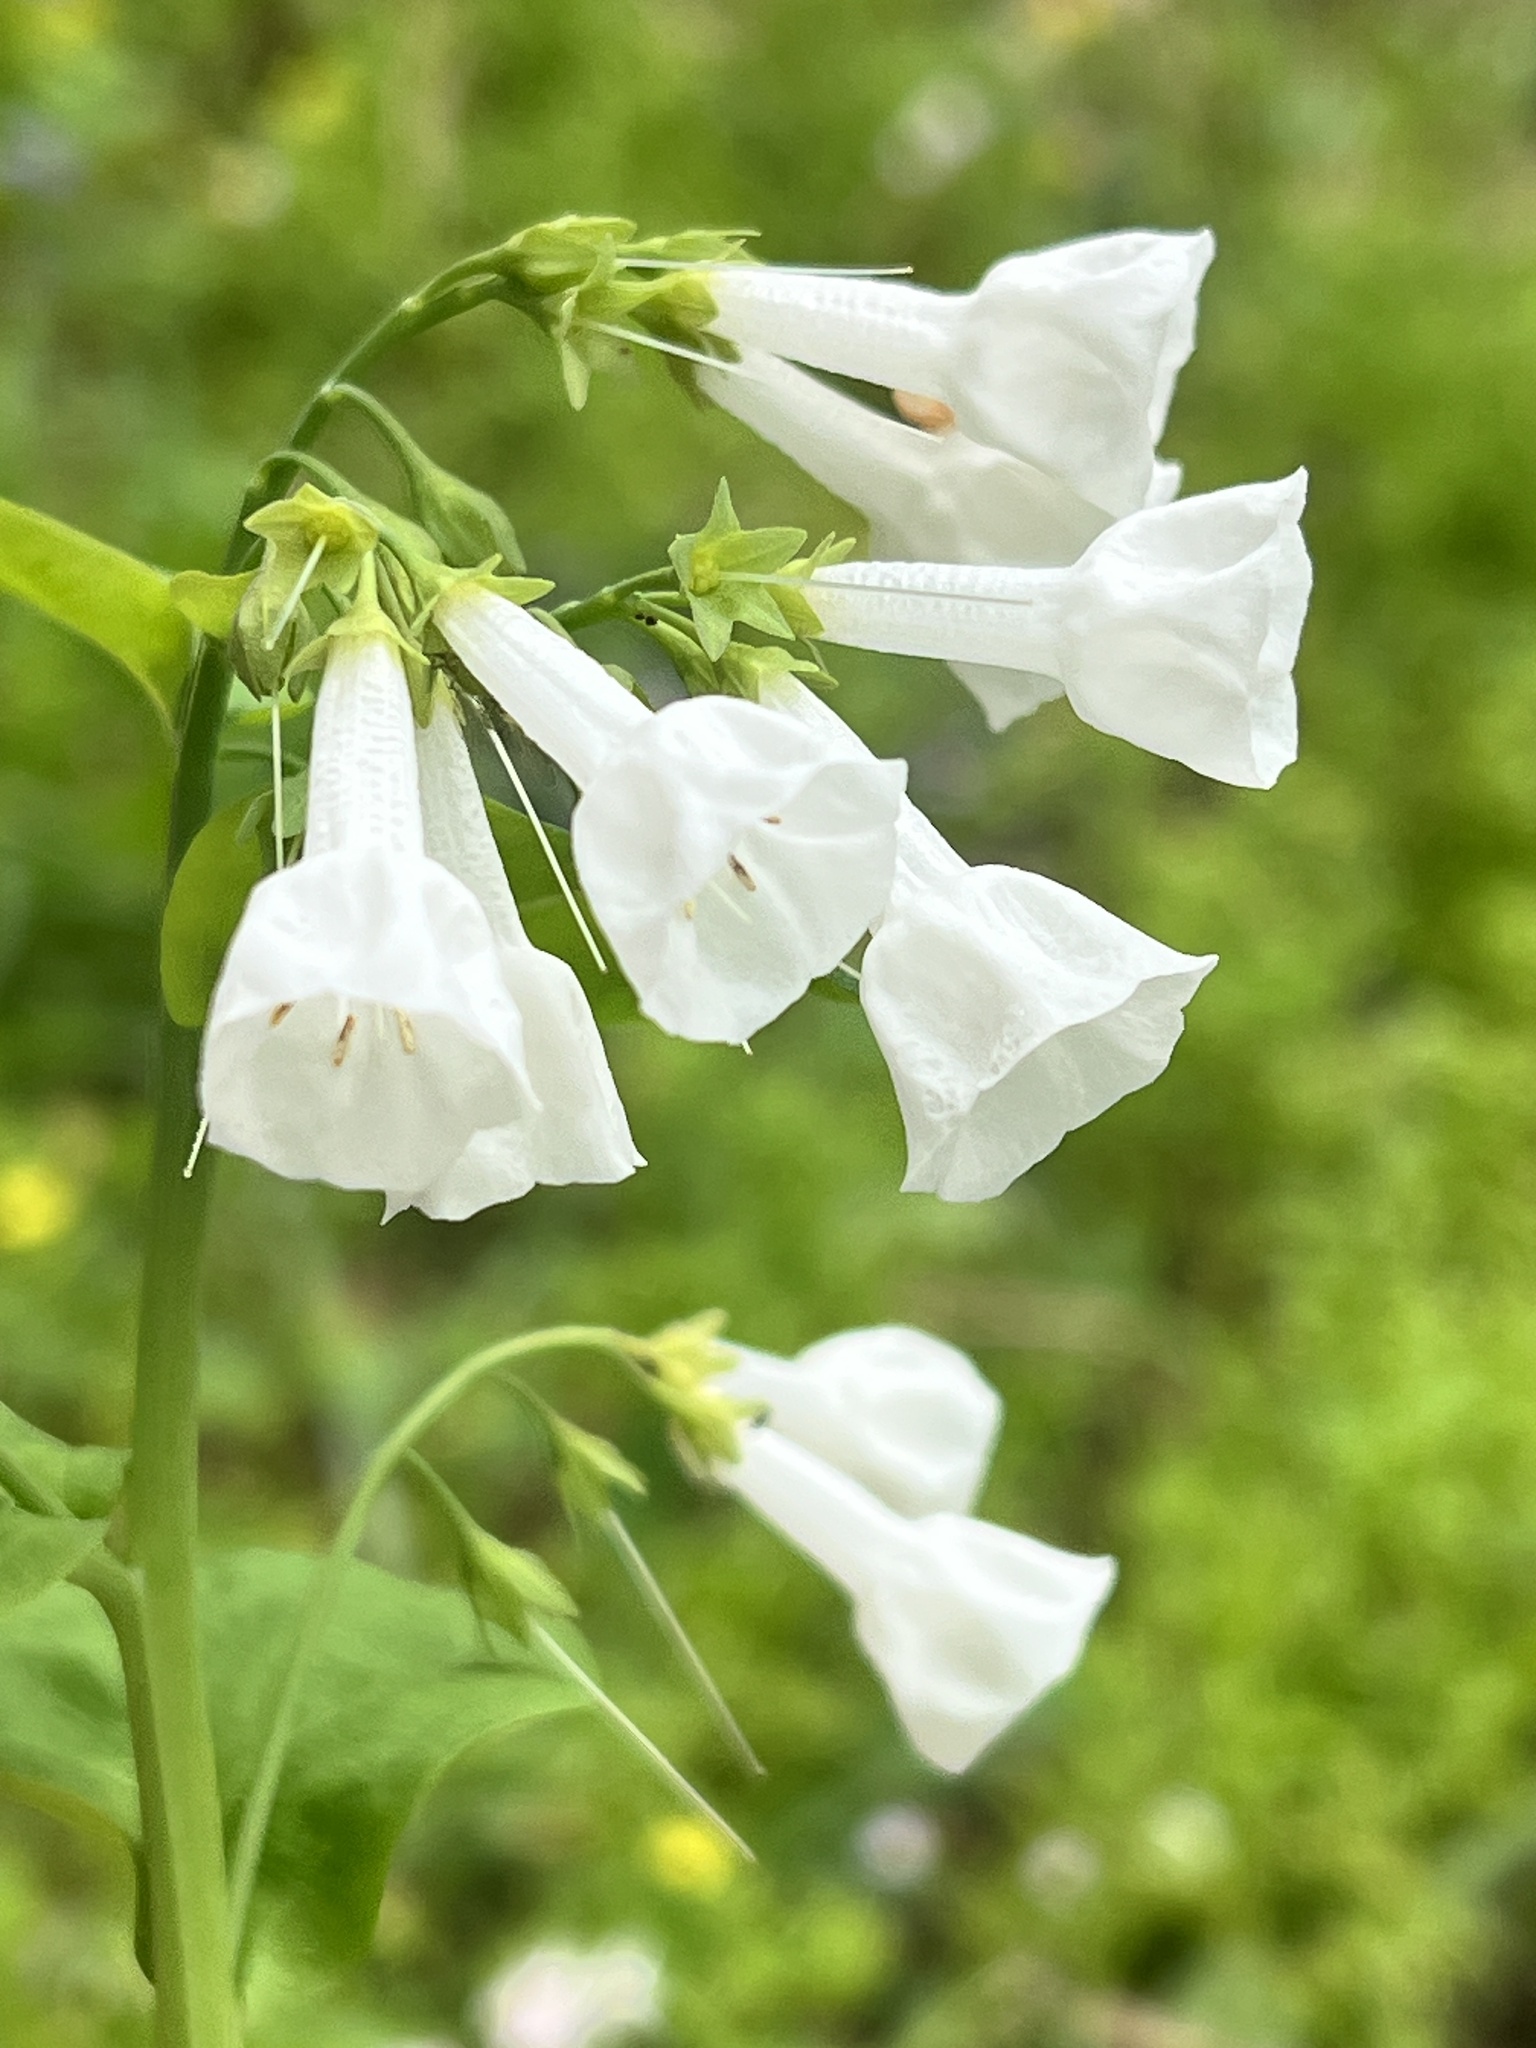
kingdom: Plantae
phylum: Tracheophyta
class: Magnoliopsida
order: Boraginales
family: Boraginaceae
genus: Mertensia
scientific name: Mertensia virginica
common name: Virginia bluebells
